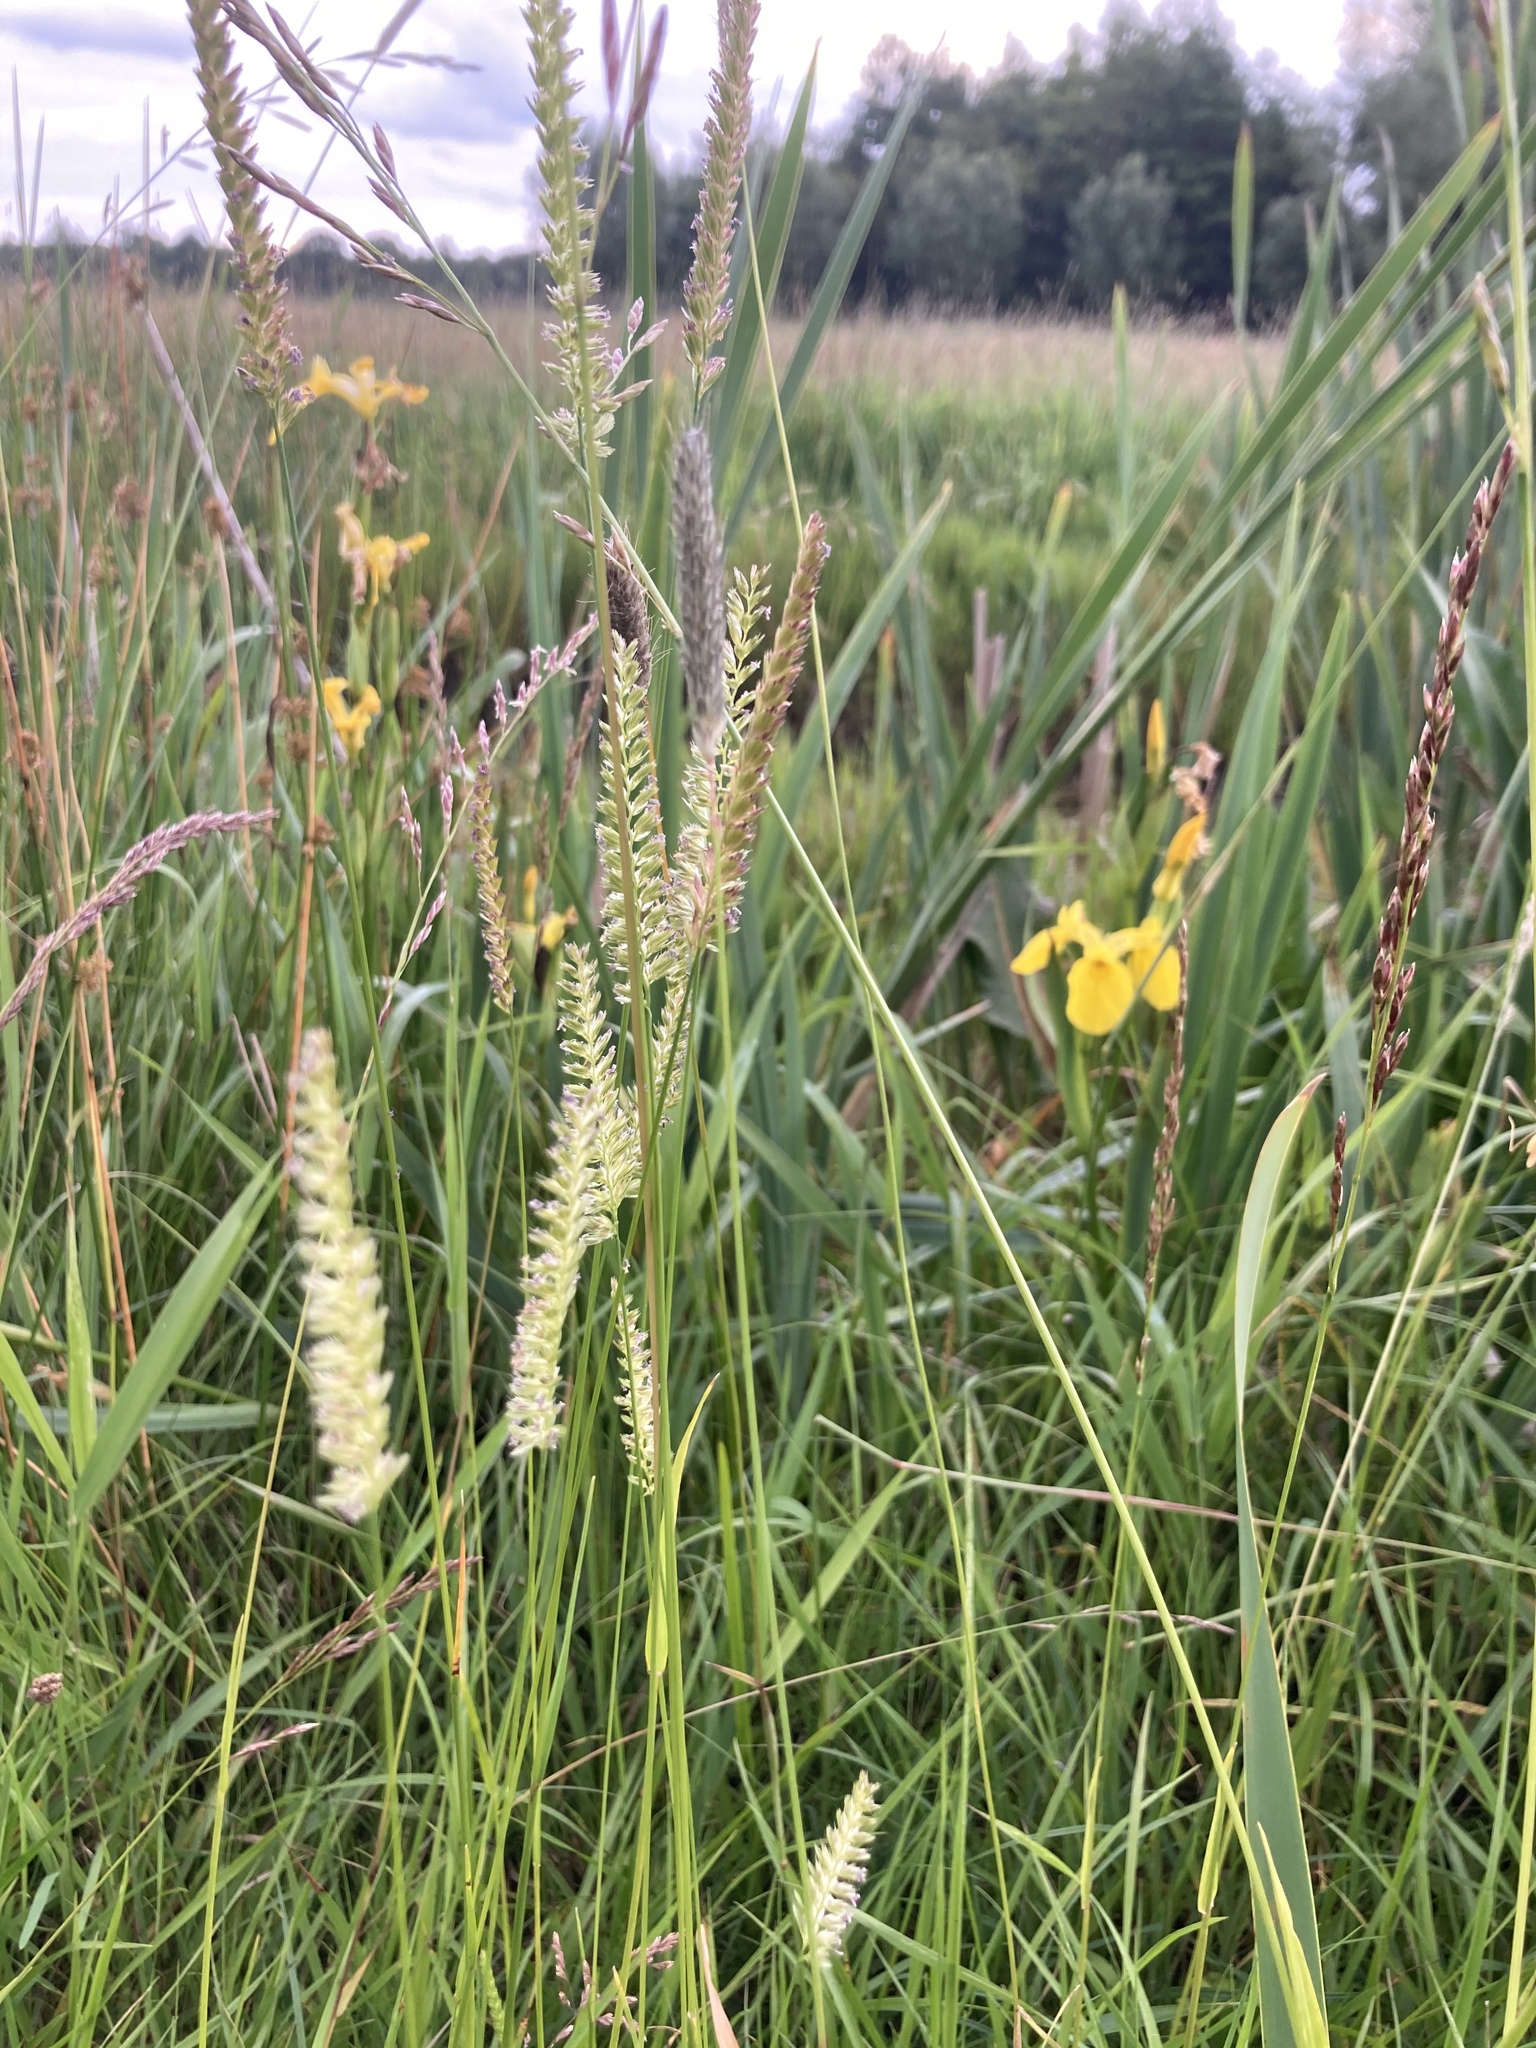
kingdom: Plantae
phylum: Tracheophyta
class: Liliopsida
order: Poales
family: Poaceae
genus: Cynosurus
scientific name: Cynosurus cristatus
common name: Crested dog's-tail
